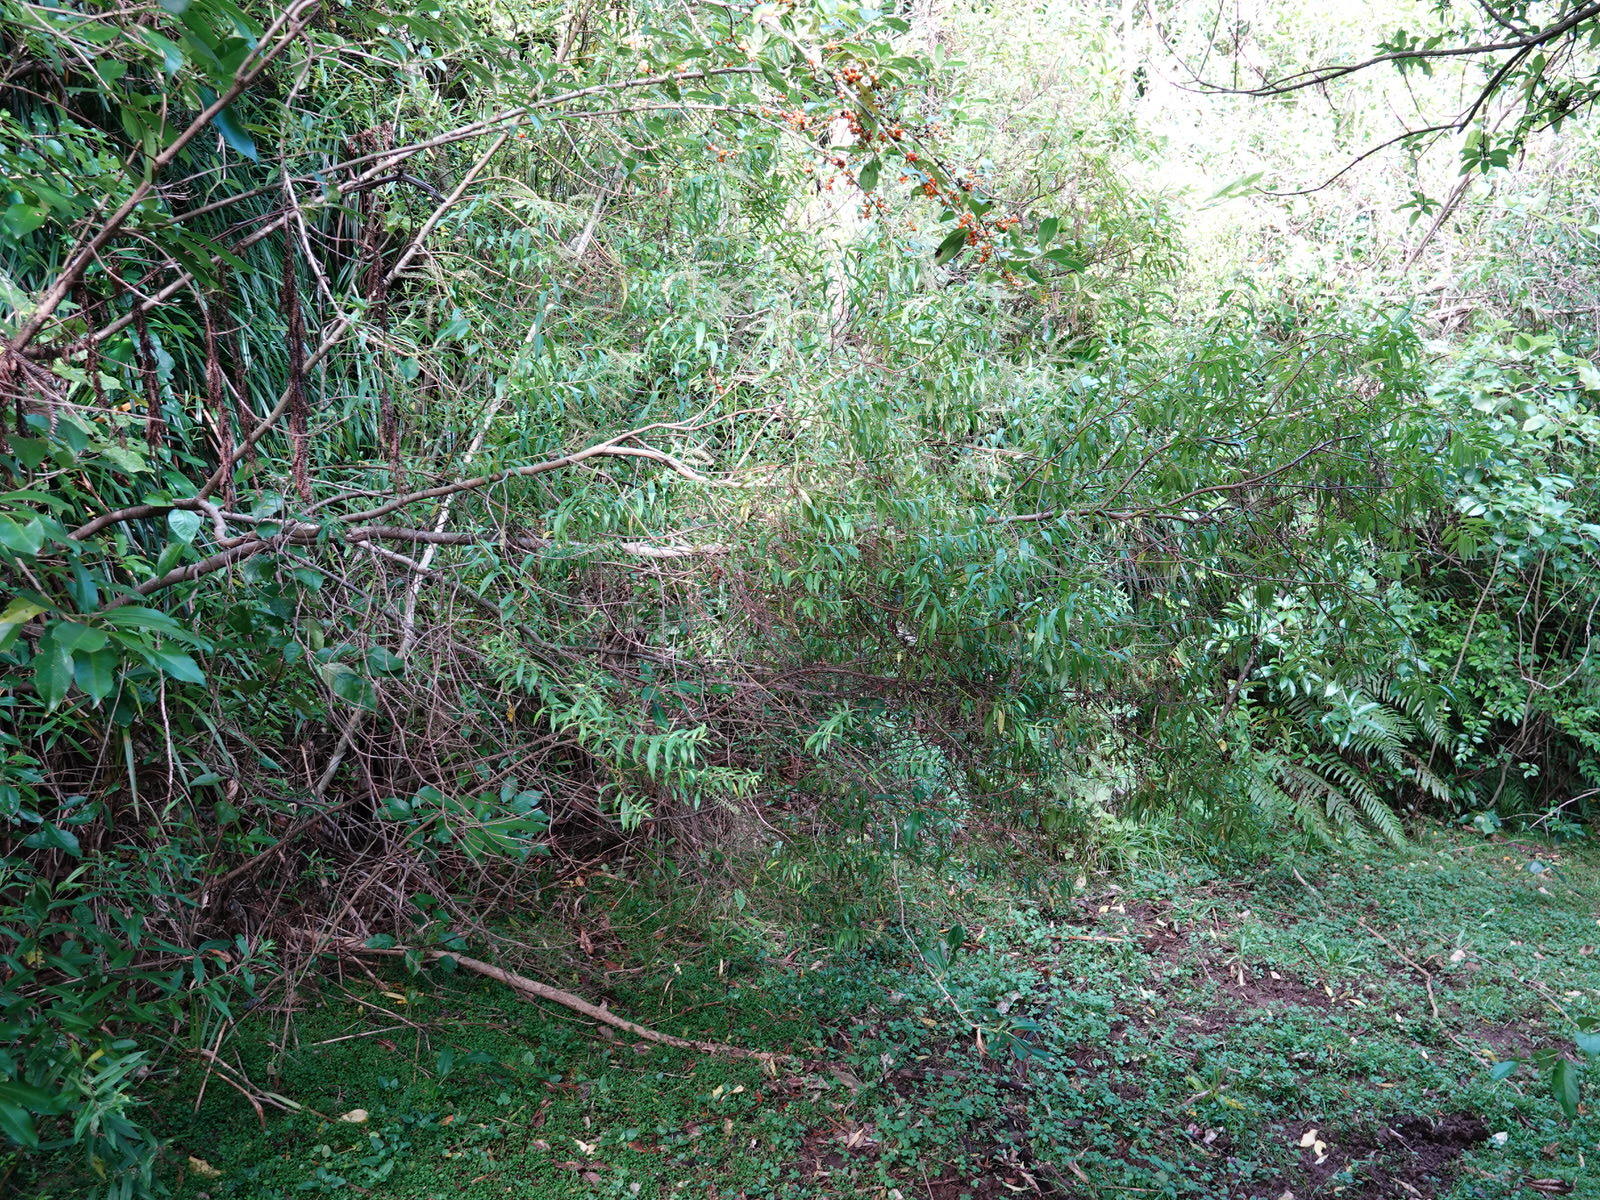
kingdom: Plantae
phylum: Tracheophyta
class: Magnoliopsida
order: Lamiales
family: Plantaginaceae
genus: Veronica
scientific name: Veronica stricta
